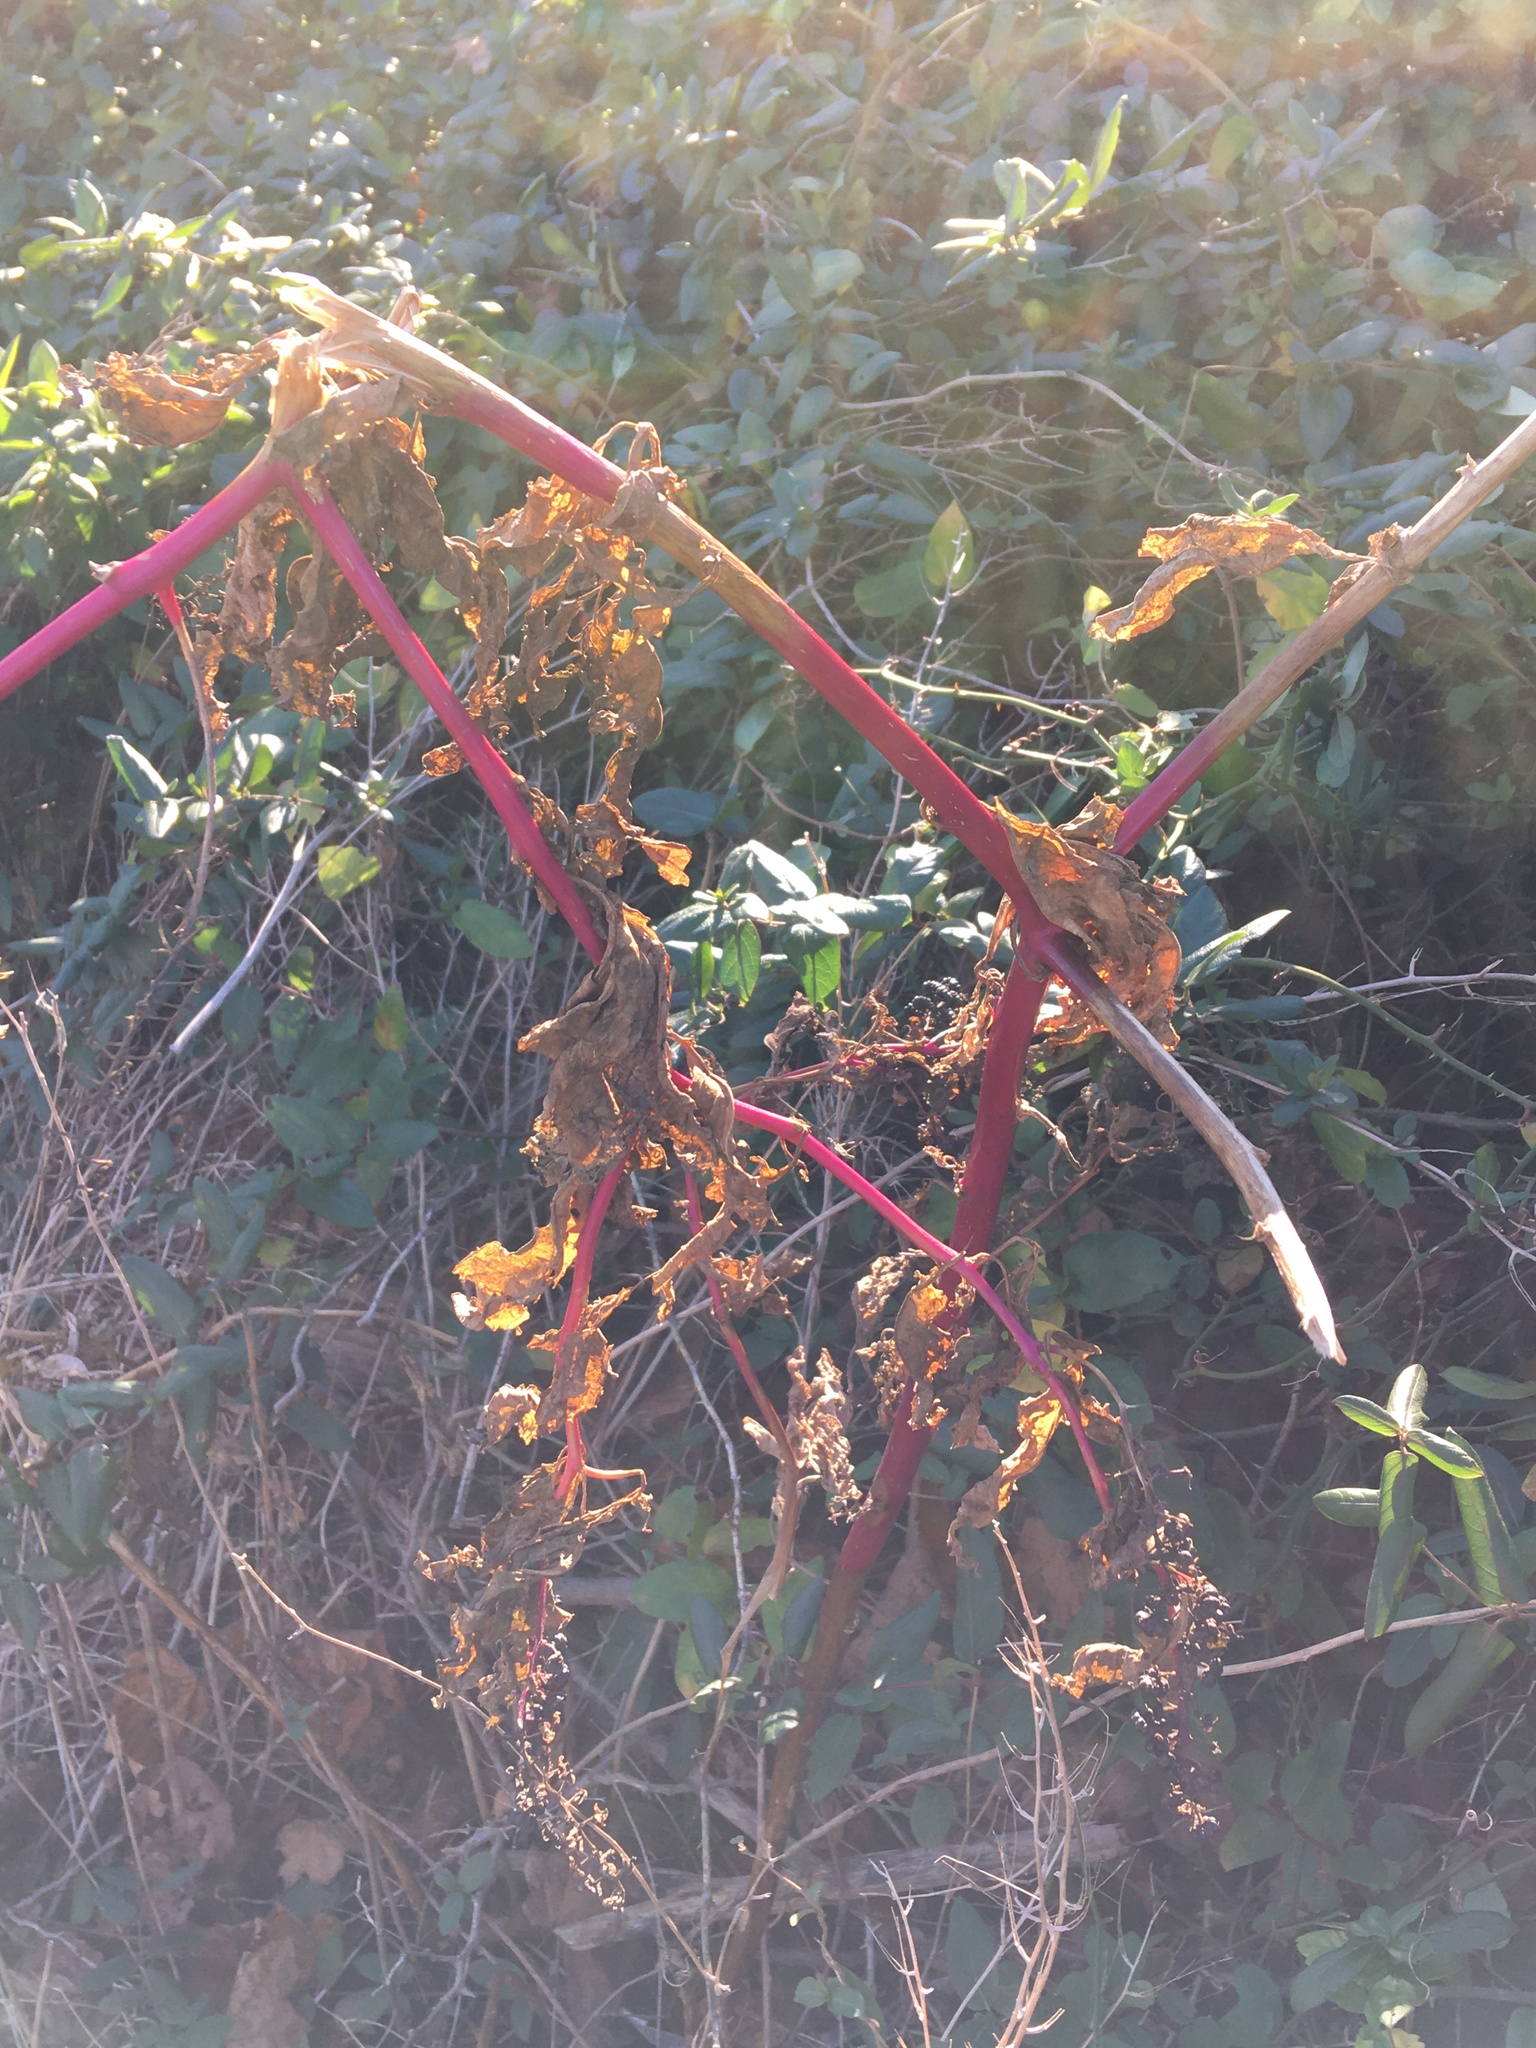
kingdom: Plantae
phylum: Tracheophyta
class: Magnoliopsida
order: Caryophyllales
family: Phytolaccaceae
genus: Phytolacca
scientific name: Phytolacca americana
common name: American pokeweed
